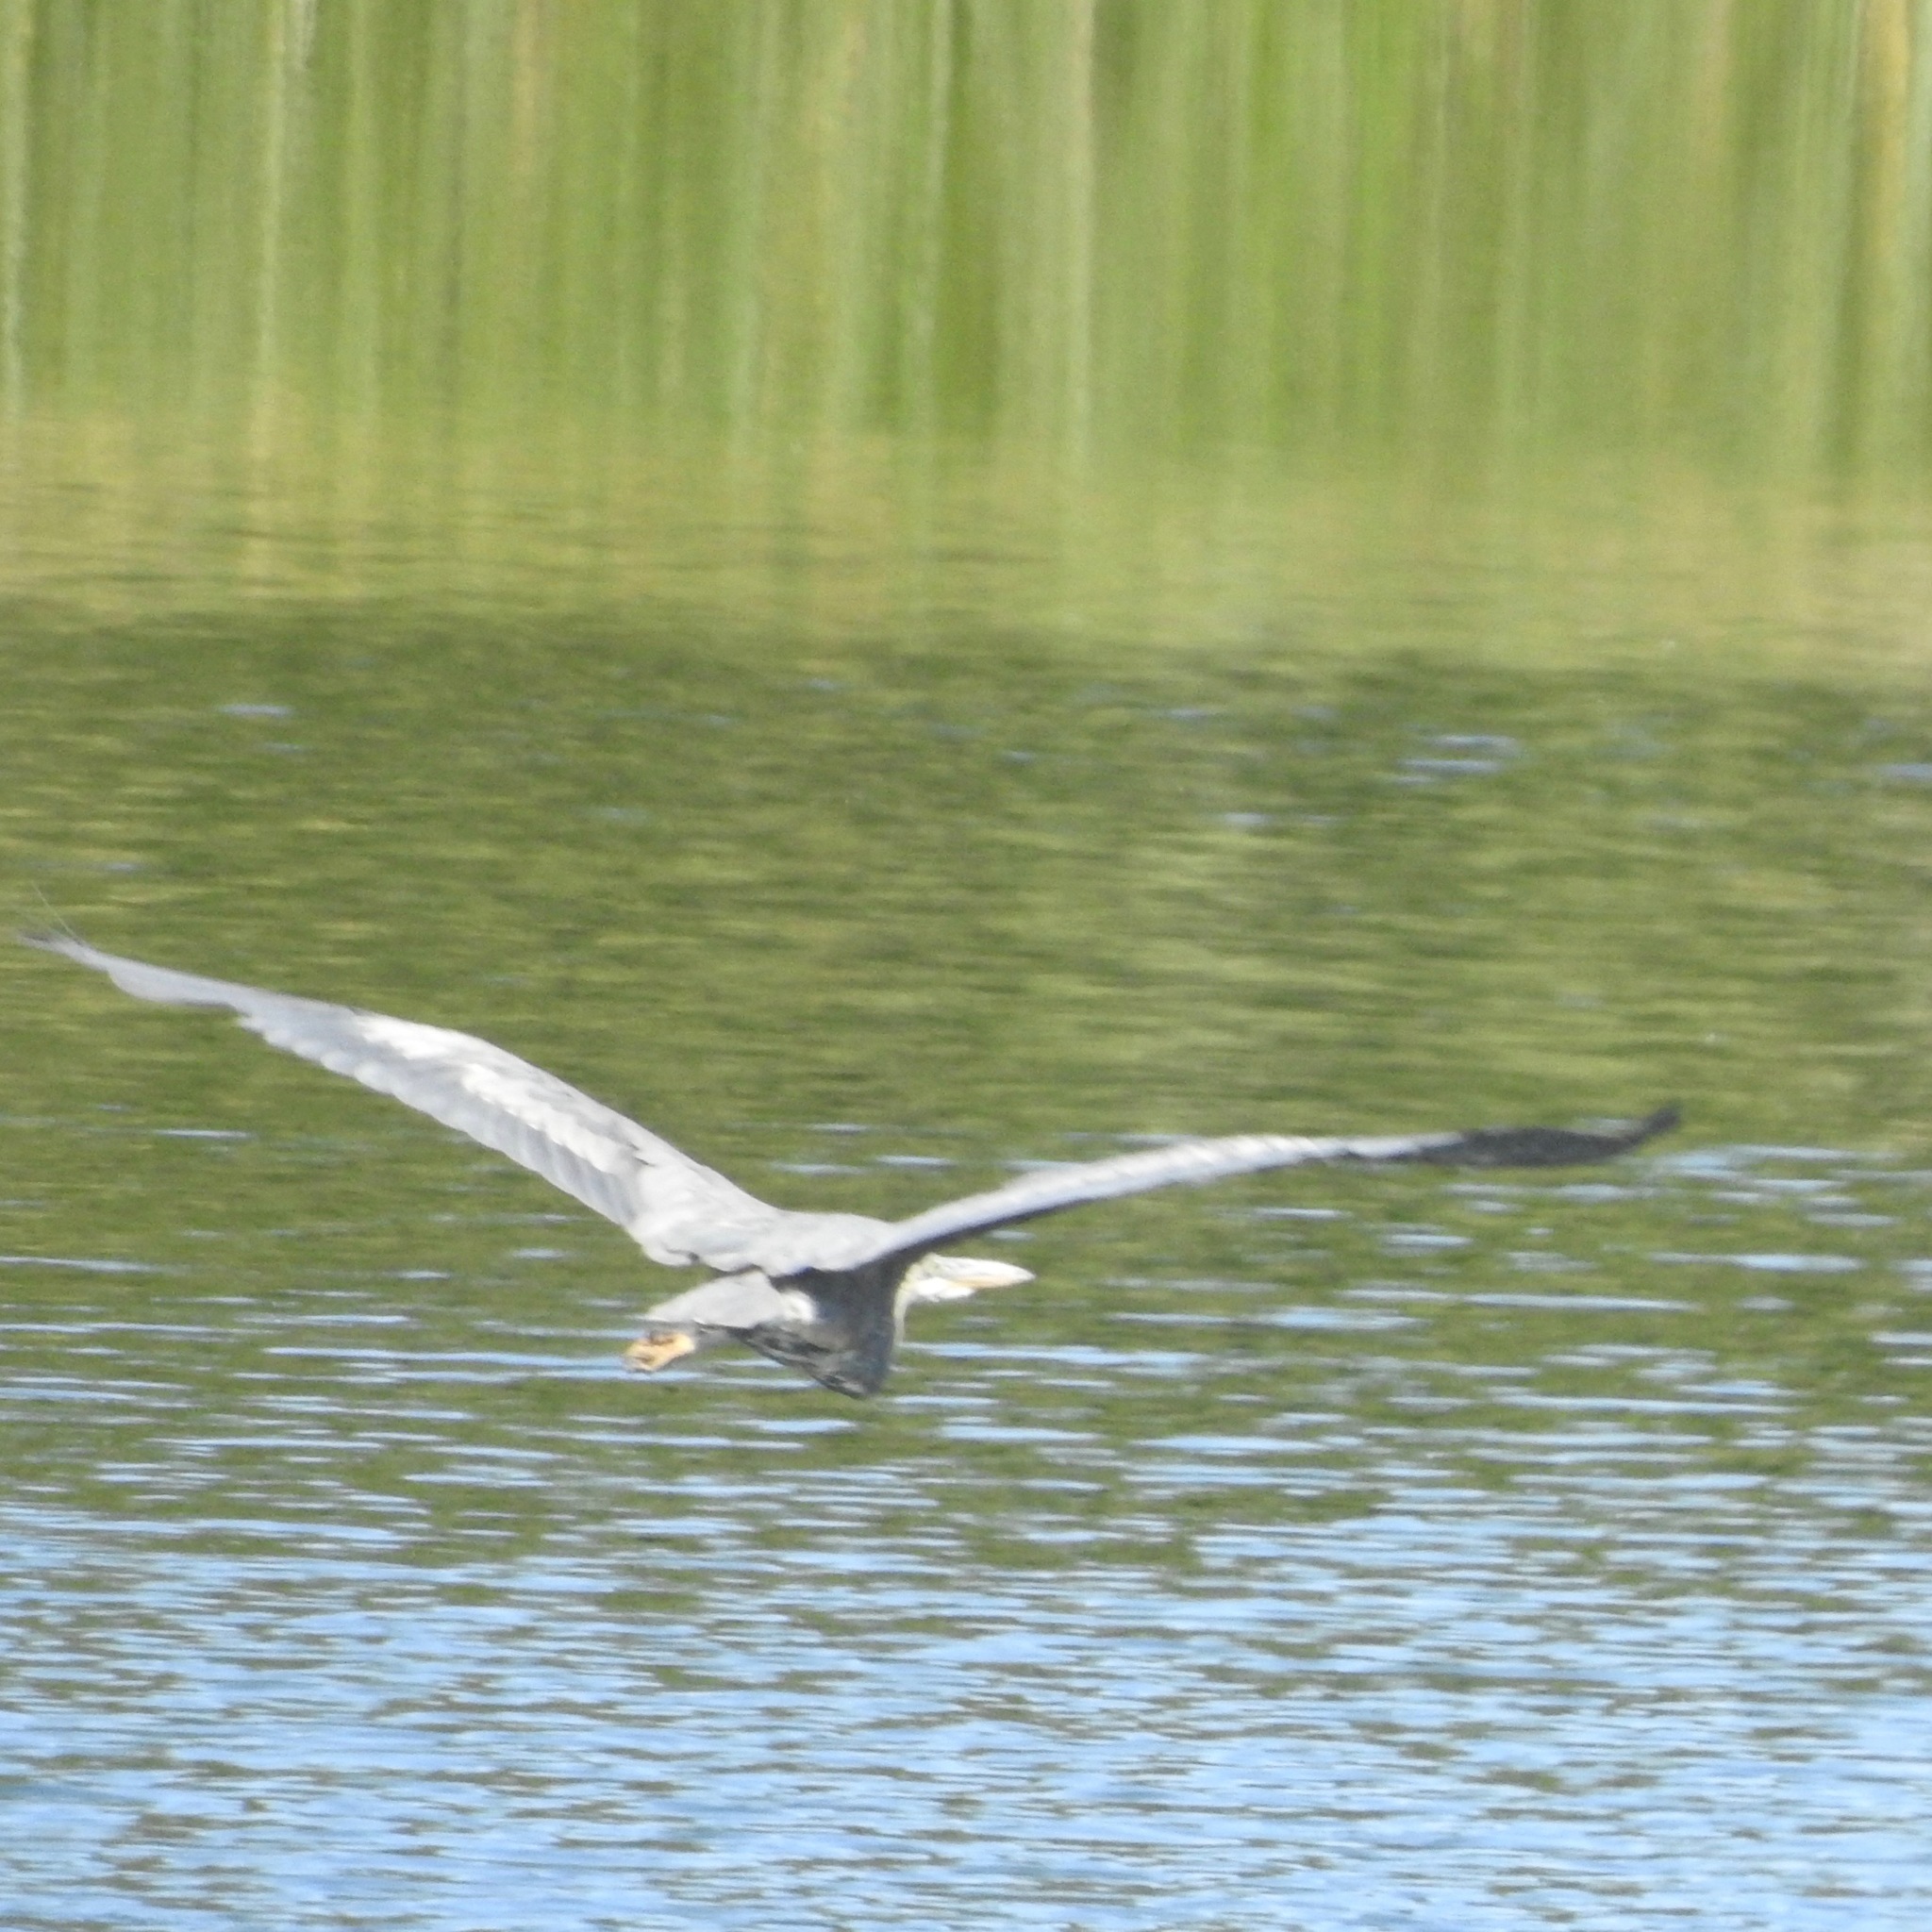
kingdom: Animalia
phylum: Chordata
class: Aves
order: Pelecaniformes
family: Ardeidae
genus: Ardea
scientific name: Ardea herodias
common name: Great blue heron
